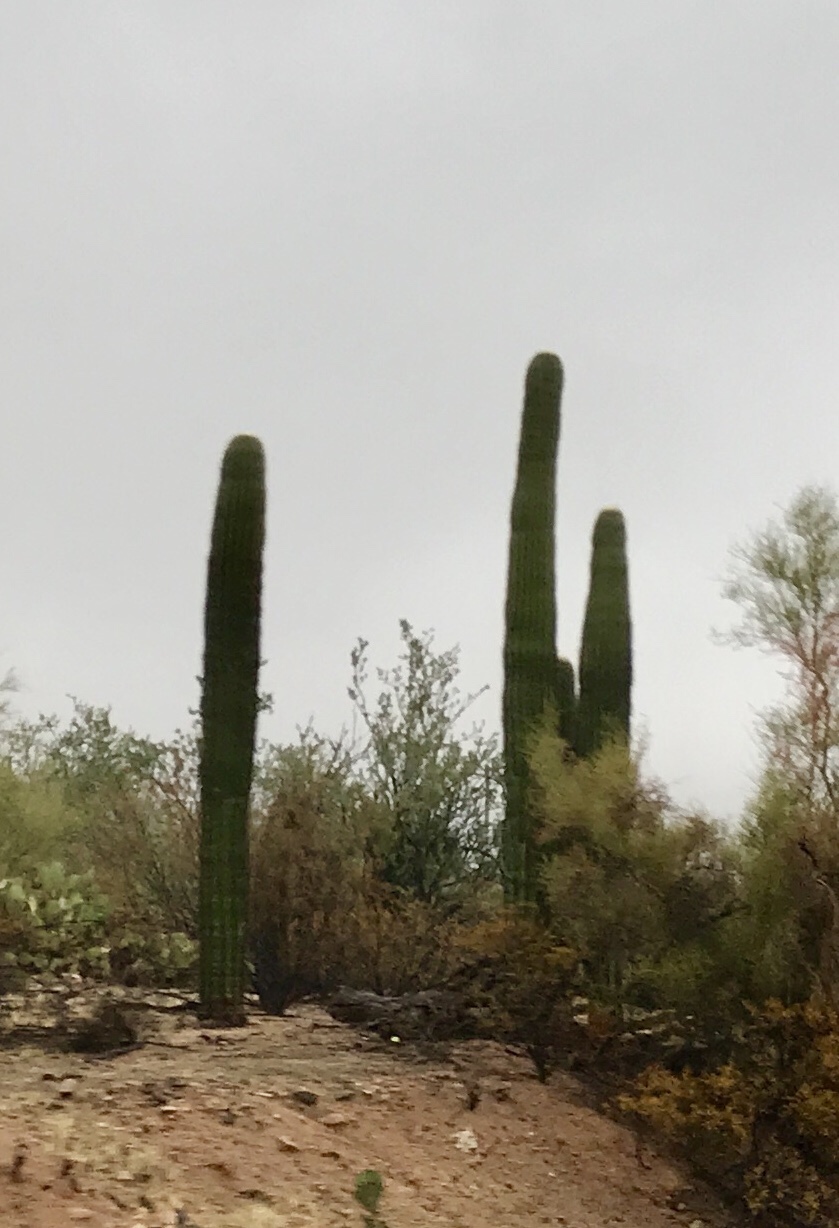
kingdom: Plantae
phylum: Tracheophyta
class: Magnoliopsida
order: Caryophyllales
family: Cactaceae
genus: Carnegiea
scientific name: Carnegiea gigantea
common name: Saguaro
